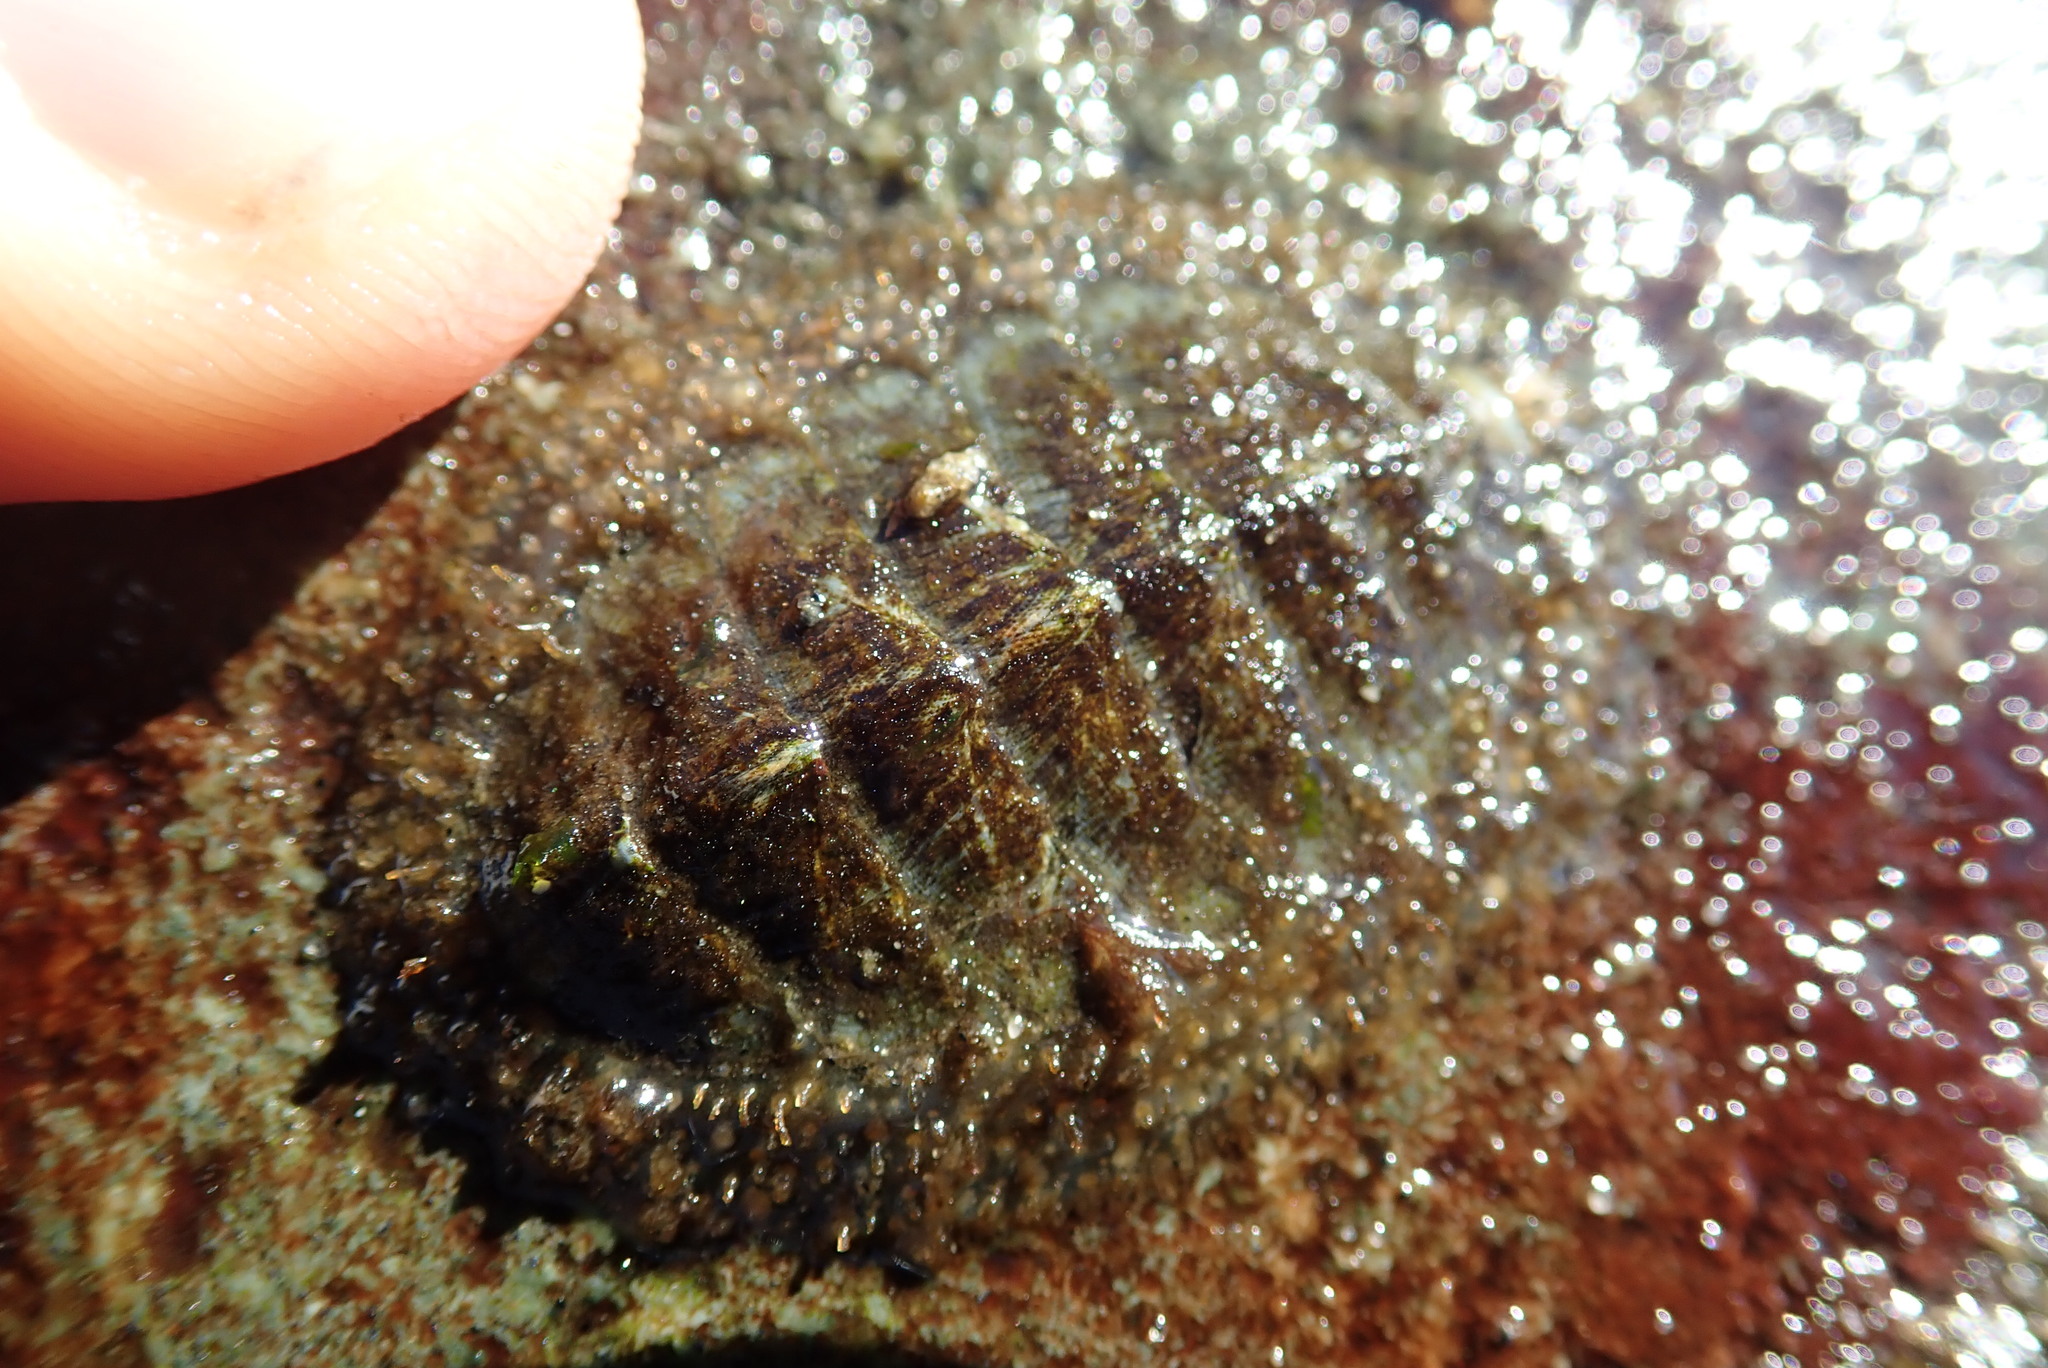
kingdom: Animalia
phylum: Mollusca
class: Polyplacophora
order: Chitonida
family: Mopaliidae
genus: Mopalia
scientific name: Mopalia lignosa
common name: Woody chiton
